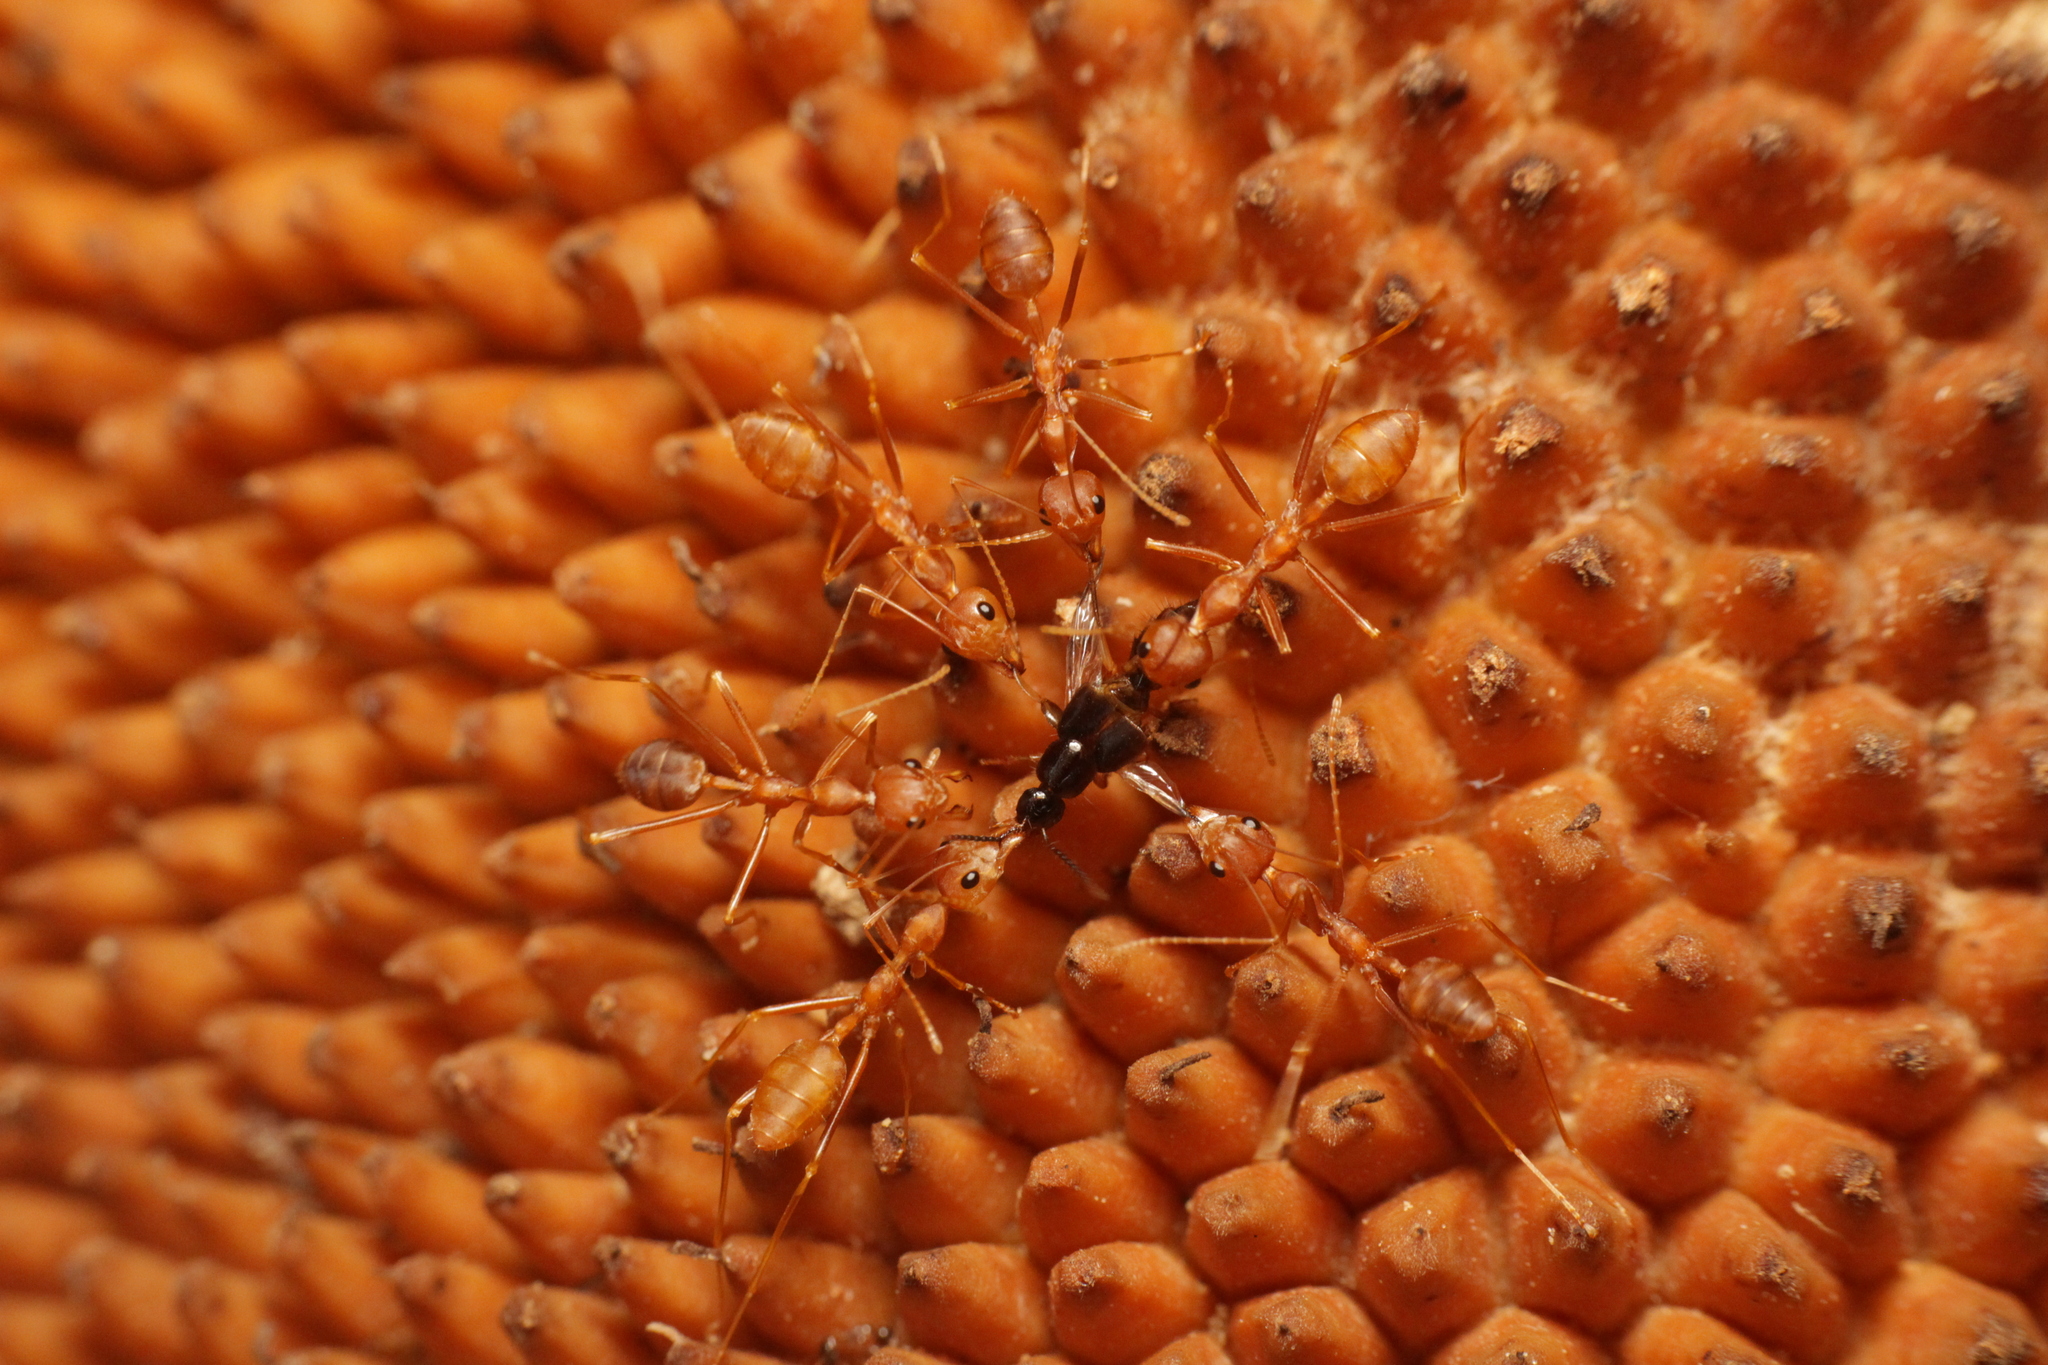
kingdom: Animalia
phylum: Arthropoda
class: Insecta
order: Hymenoptera
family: Formicidae
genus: Oecophylla
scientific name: Oecophylla smaragdina
